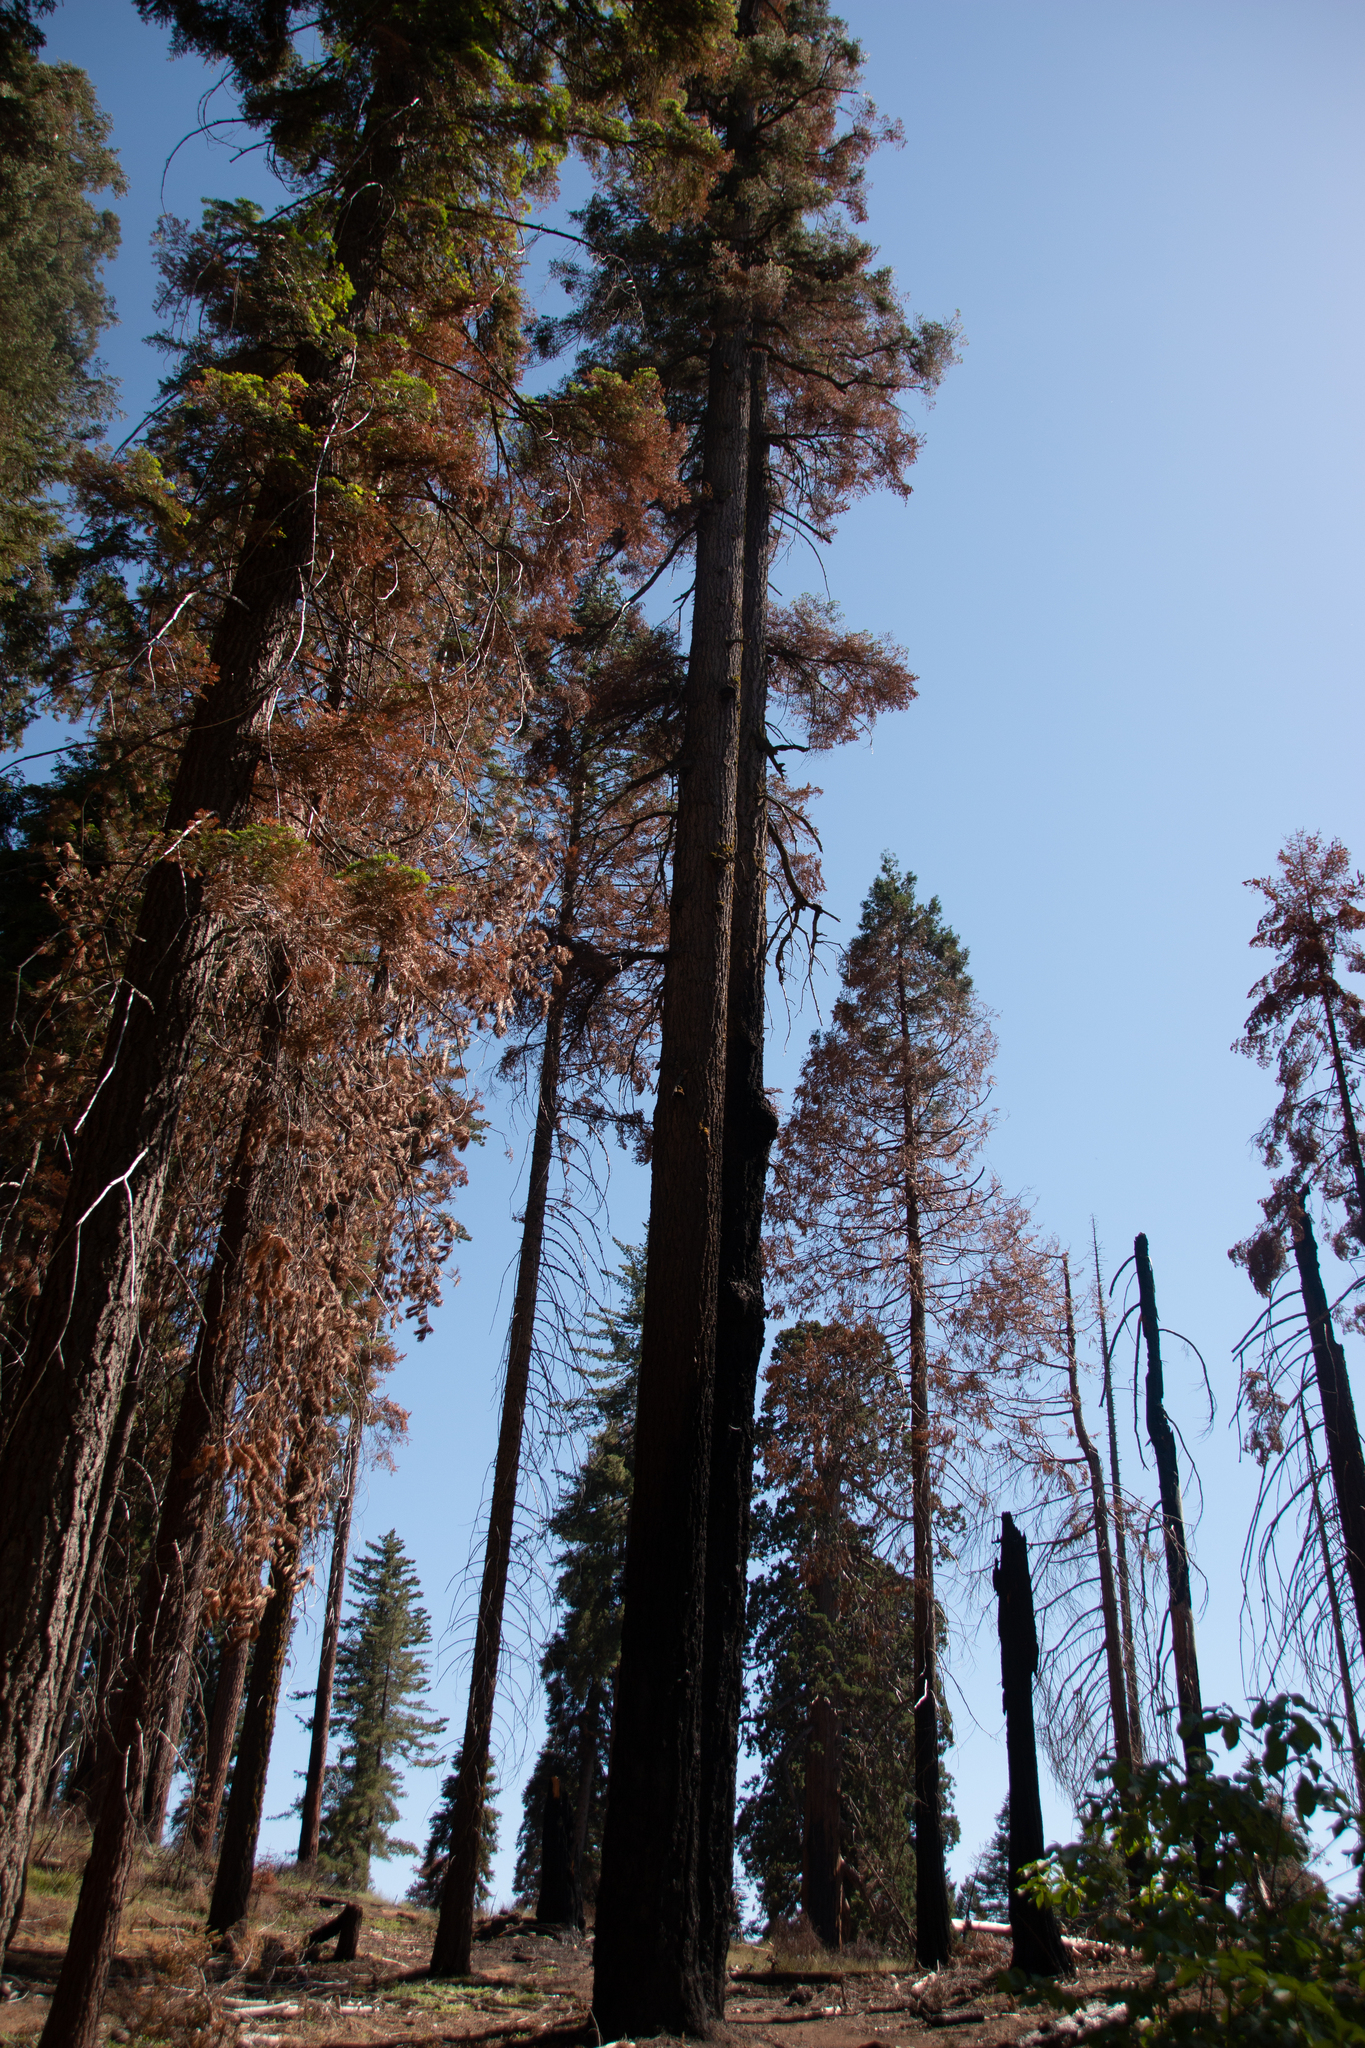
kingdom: Plantae
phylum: Tracheophyta
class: Pinopsida
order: Pinales
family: Cupressaceae
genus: Sequoiadendron
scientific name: Sequoiadendron giganteum
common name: Wellingtonia
